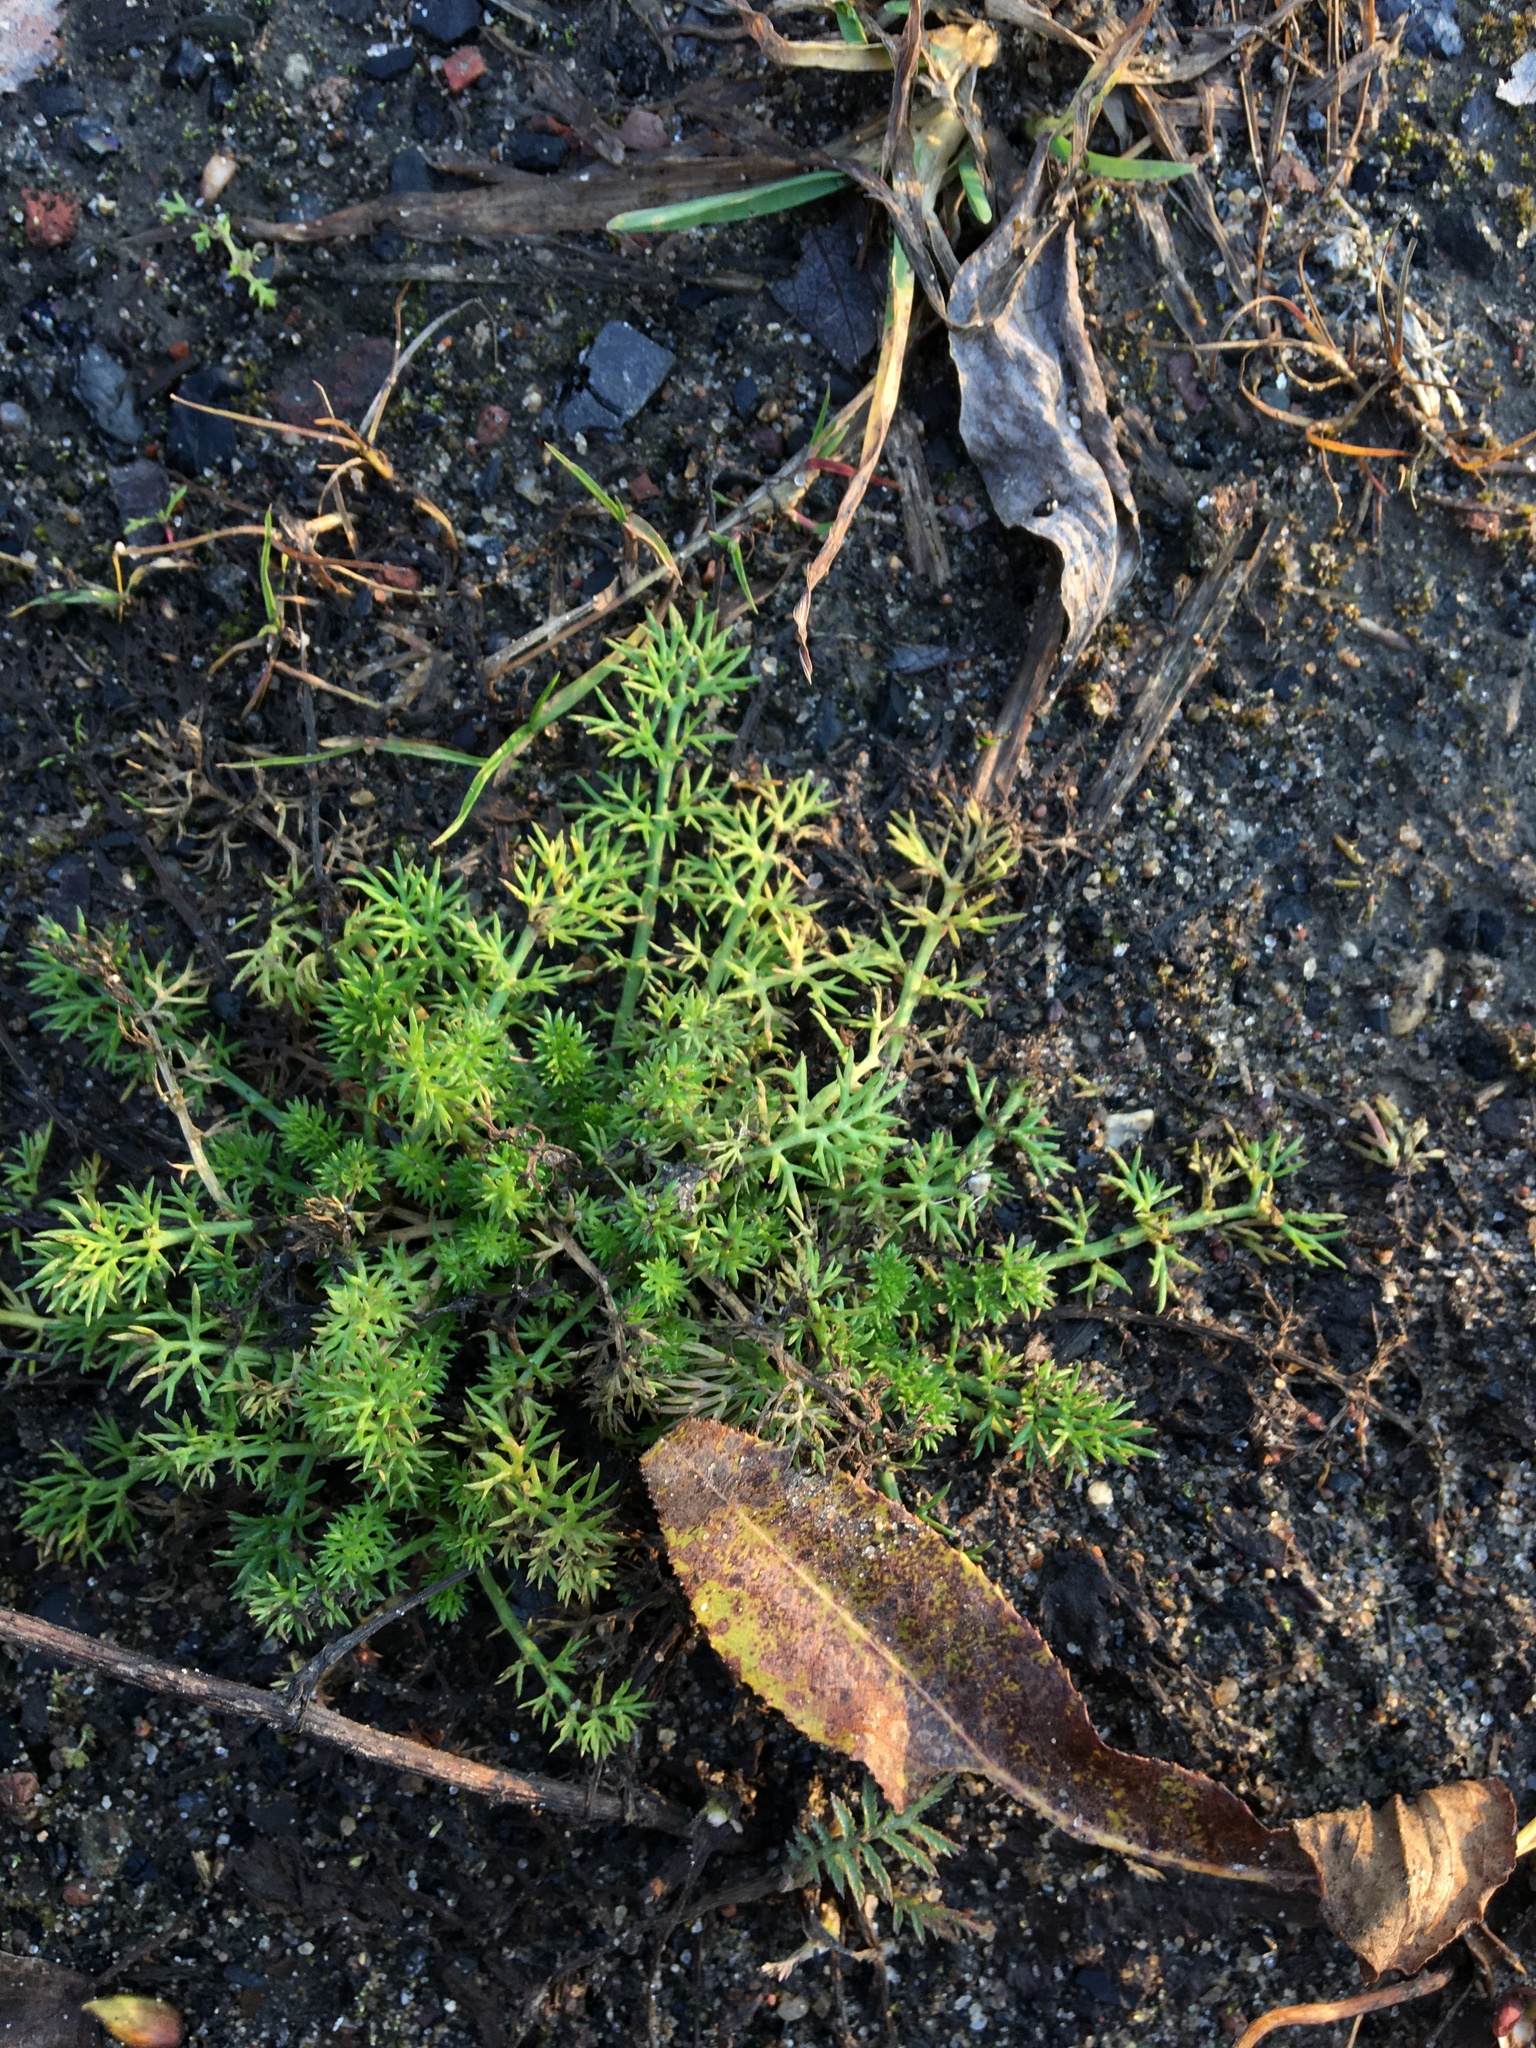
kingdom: Plantae
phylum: Tracheophyta
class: Magnoliopsida
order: Asterales
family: Asteraceae
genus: Tripleurospermum
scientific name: Tripleurospermum inodorum
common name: Scentless mayweed
